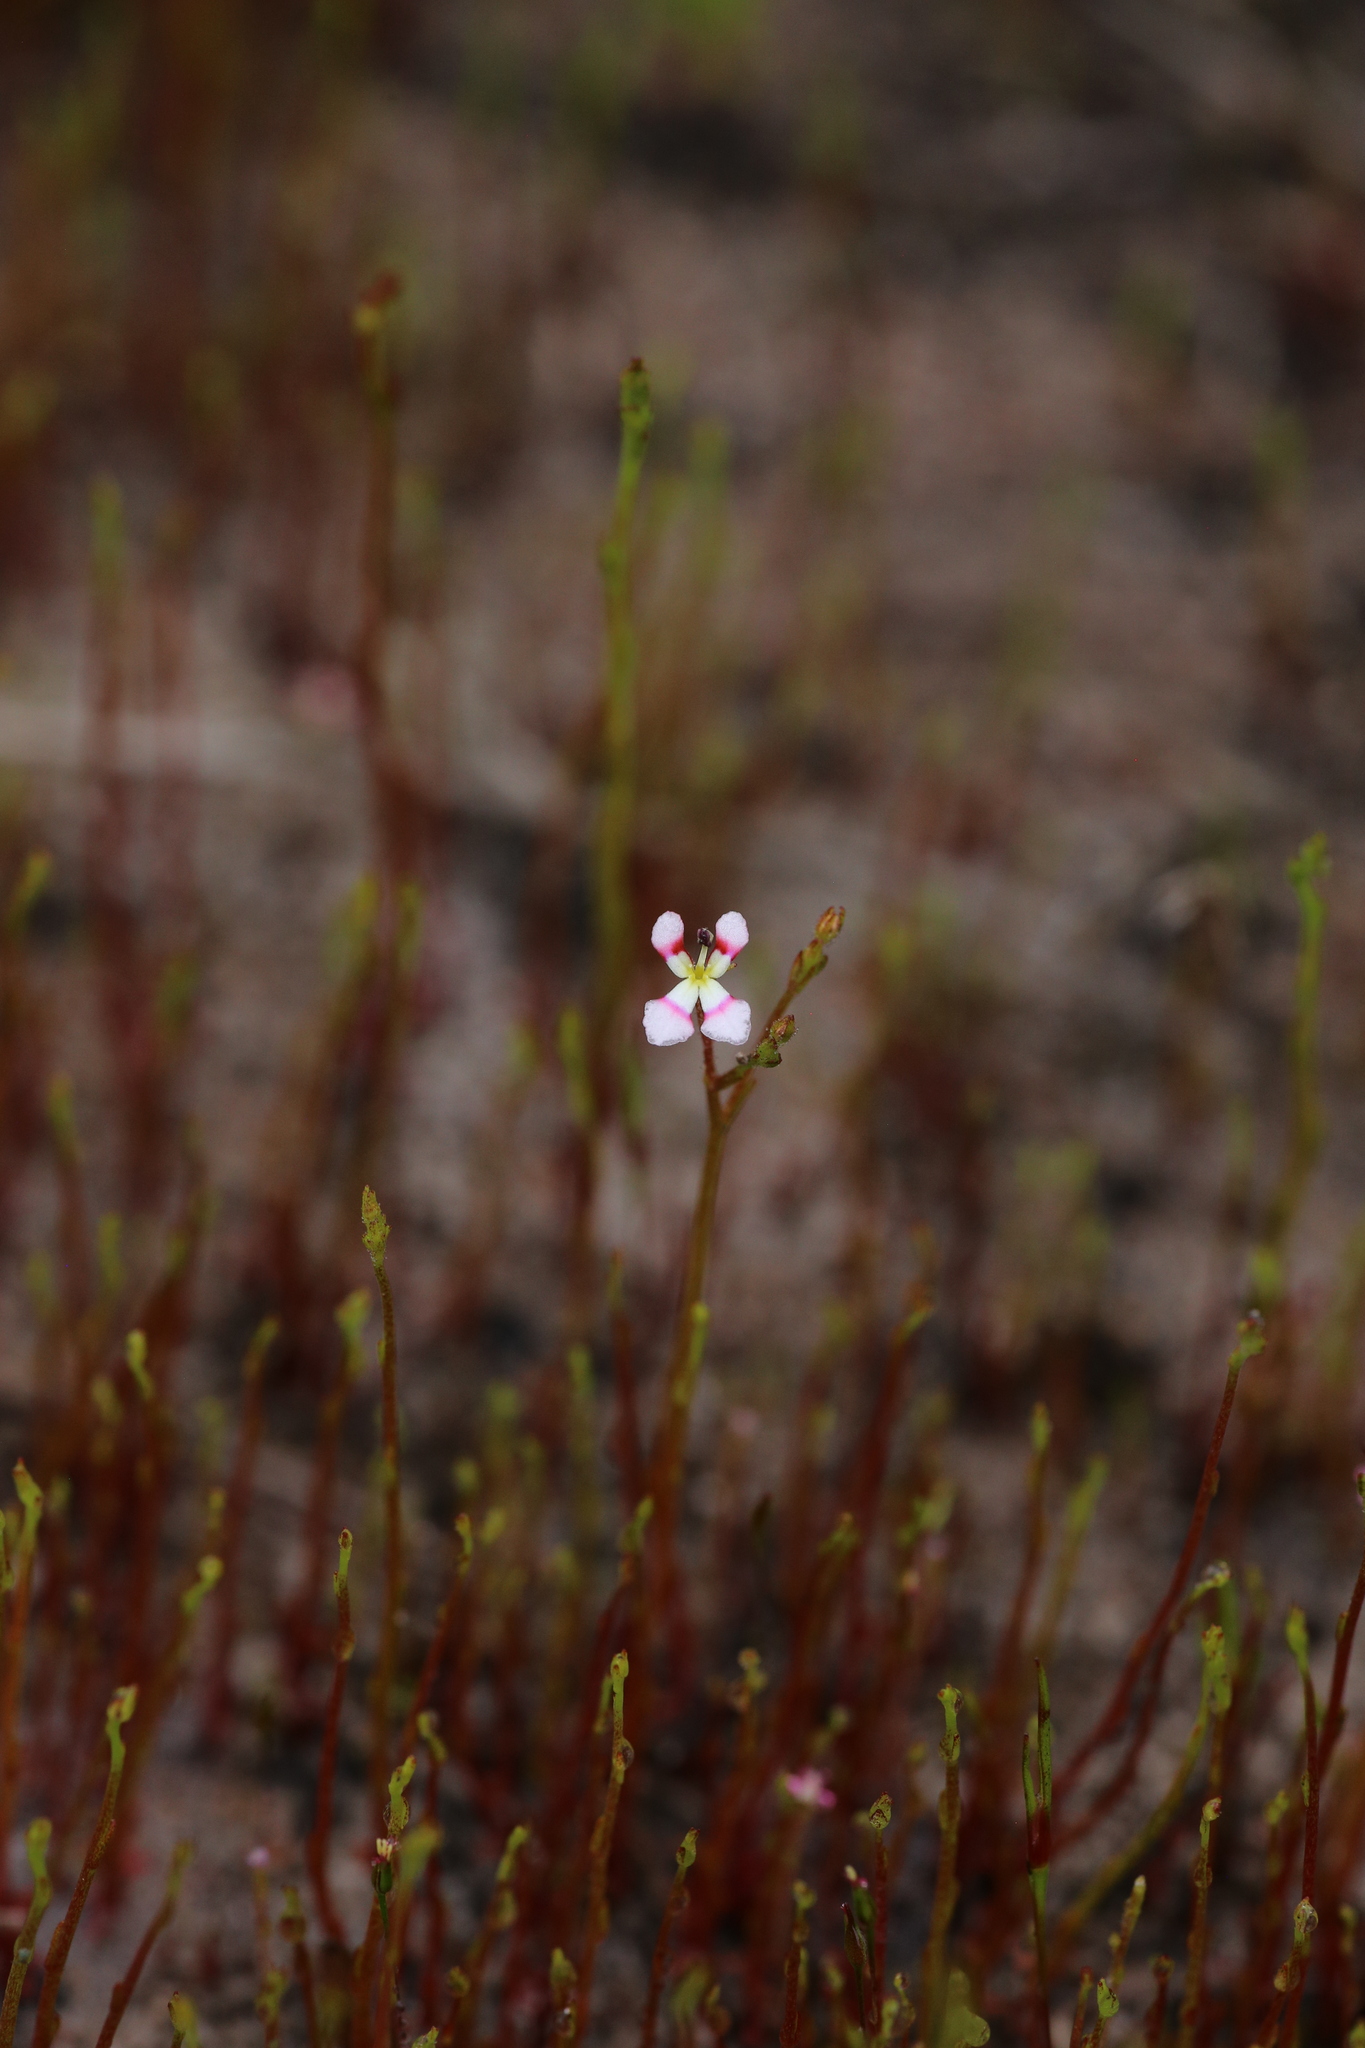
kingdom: Plantae
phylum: Tracheophyta
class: Magnoliopsida
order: Asterales
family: Stylidiaceae
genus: Stylidium
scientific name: Stylidium utricularioides
